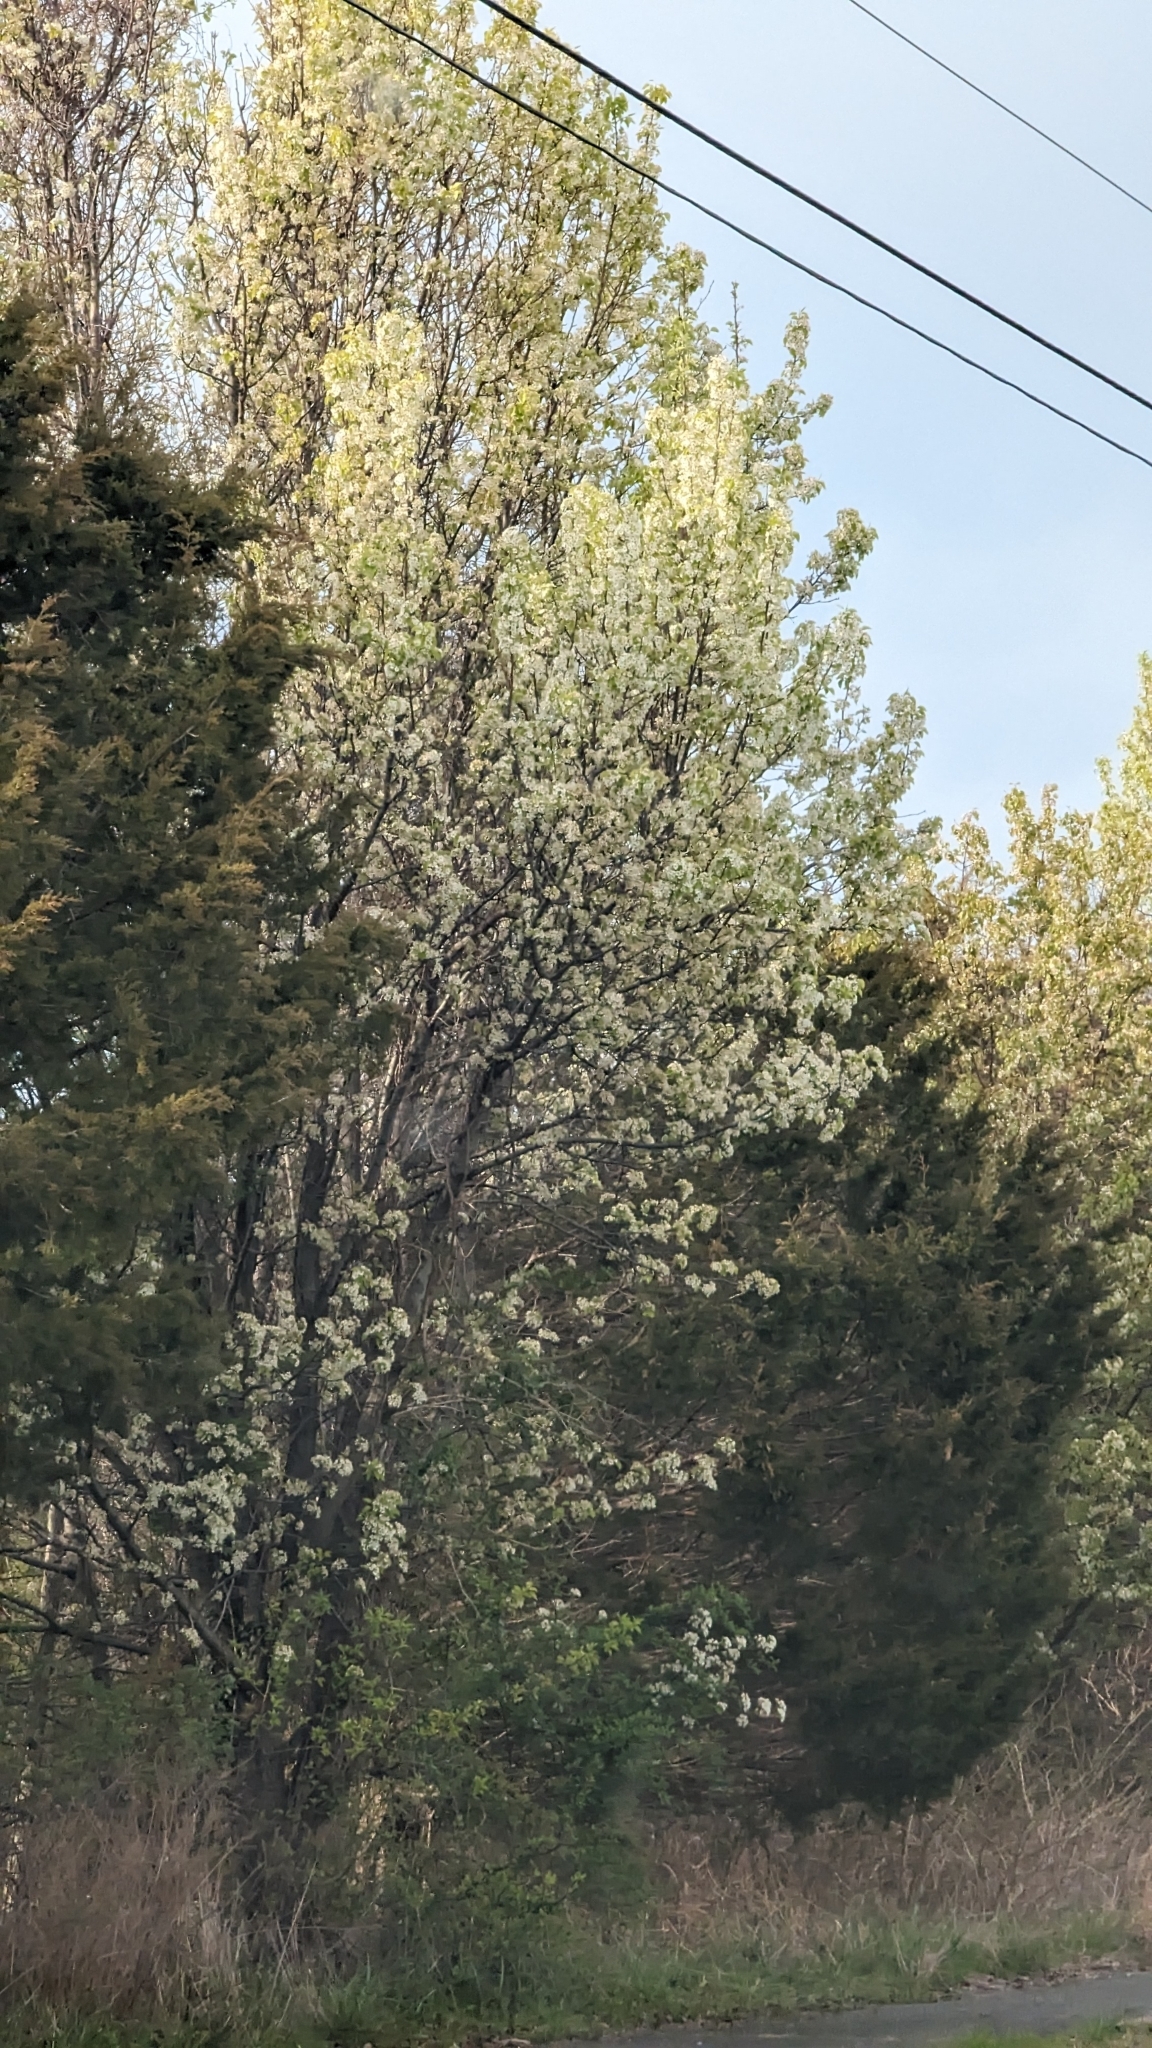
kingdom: Plantae
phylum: Tracheophyta
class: Magnoliopsida
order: Rosales
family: Rosaceae
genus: Pyrus
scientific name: Pyrus calleryana
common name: Callery pear
